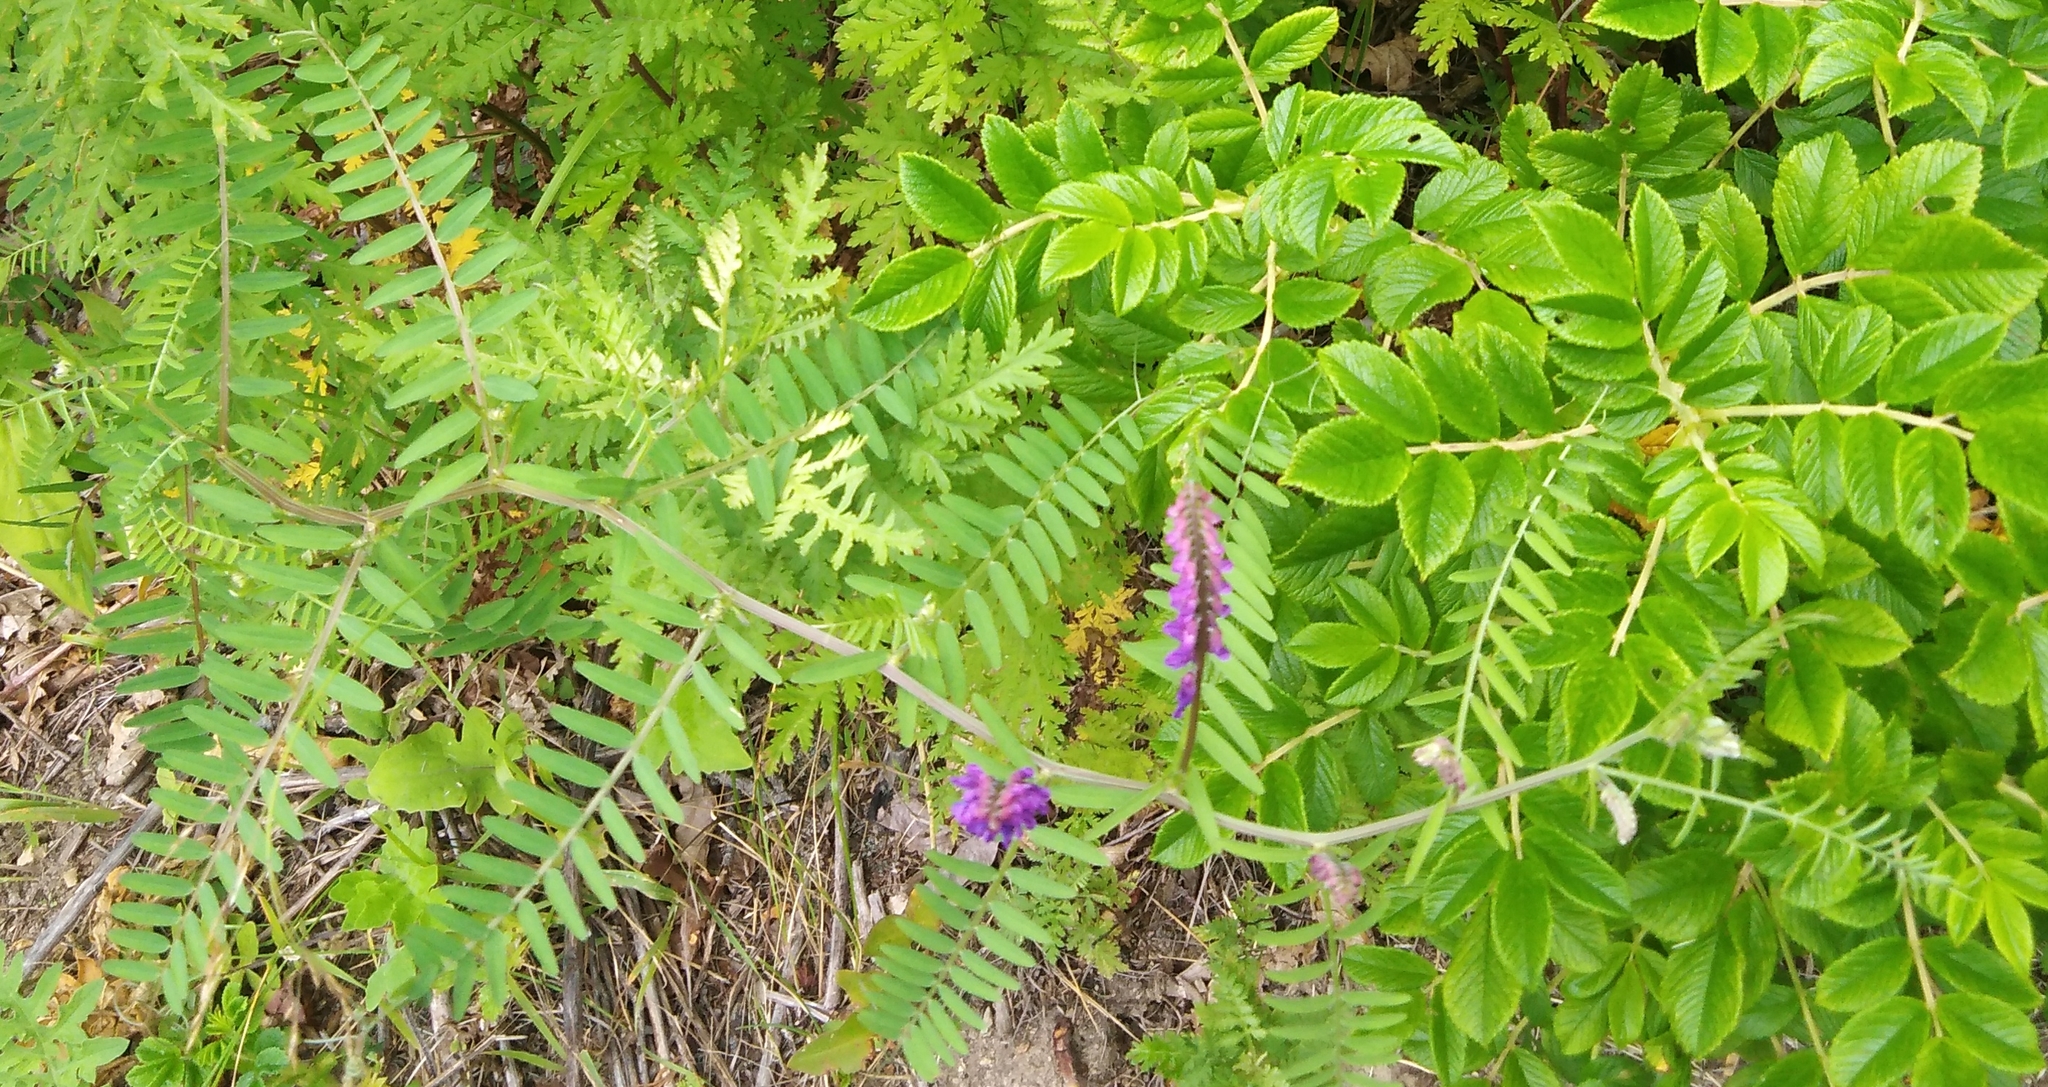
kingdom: Plantae
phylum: Tracheophyta
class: Magnoliopsida
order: Fabales
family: Fabaceae
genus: Vicia
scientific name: Vicia cracca
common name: Bird vetch
